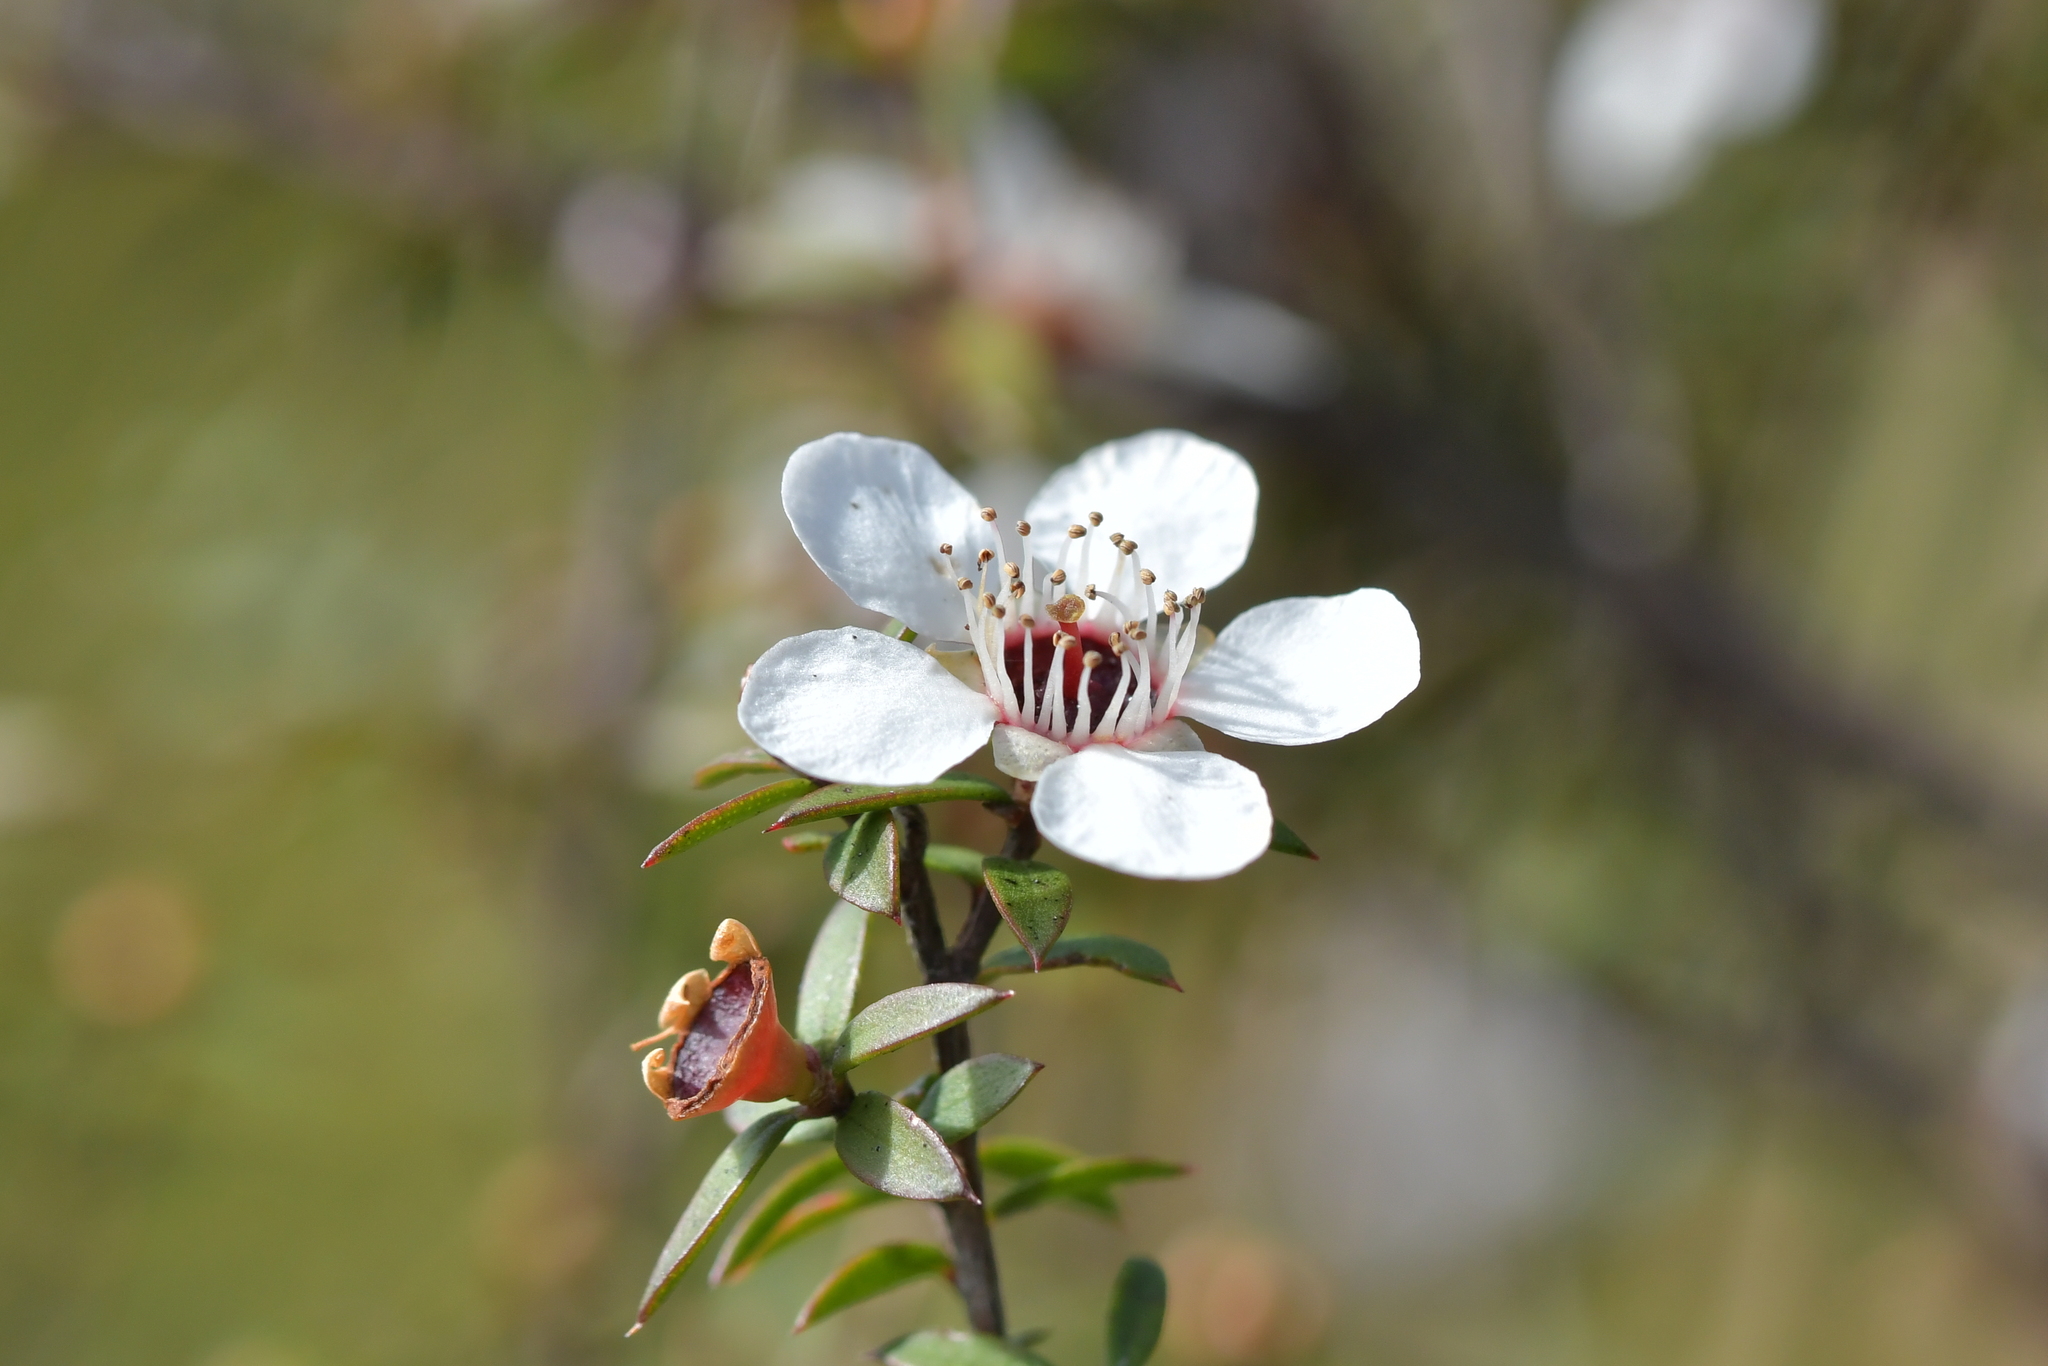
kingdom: Plantae
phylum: Tracheophyta
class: Magnoliopsida
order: Myrtales
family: Myrtaceae
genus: Leptospermum
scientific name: Leptospermum scoparium
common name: Broom tea-tree
